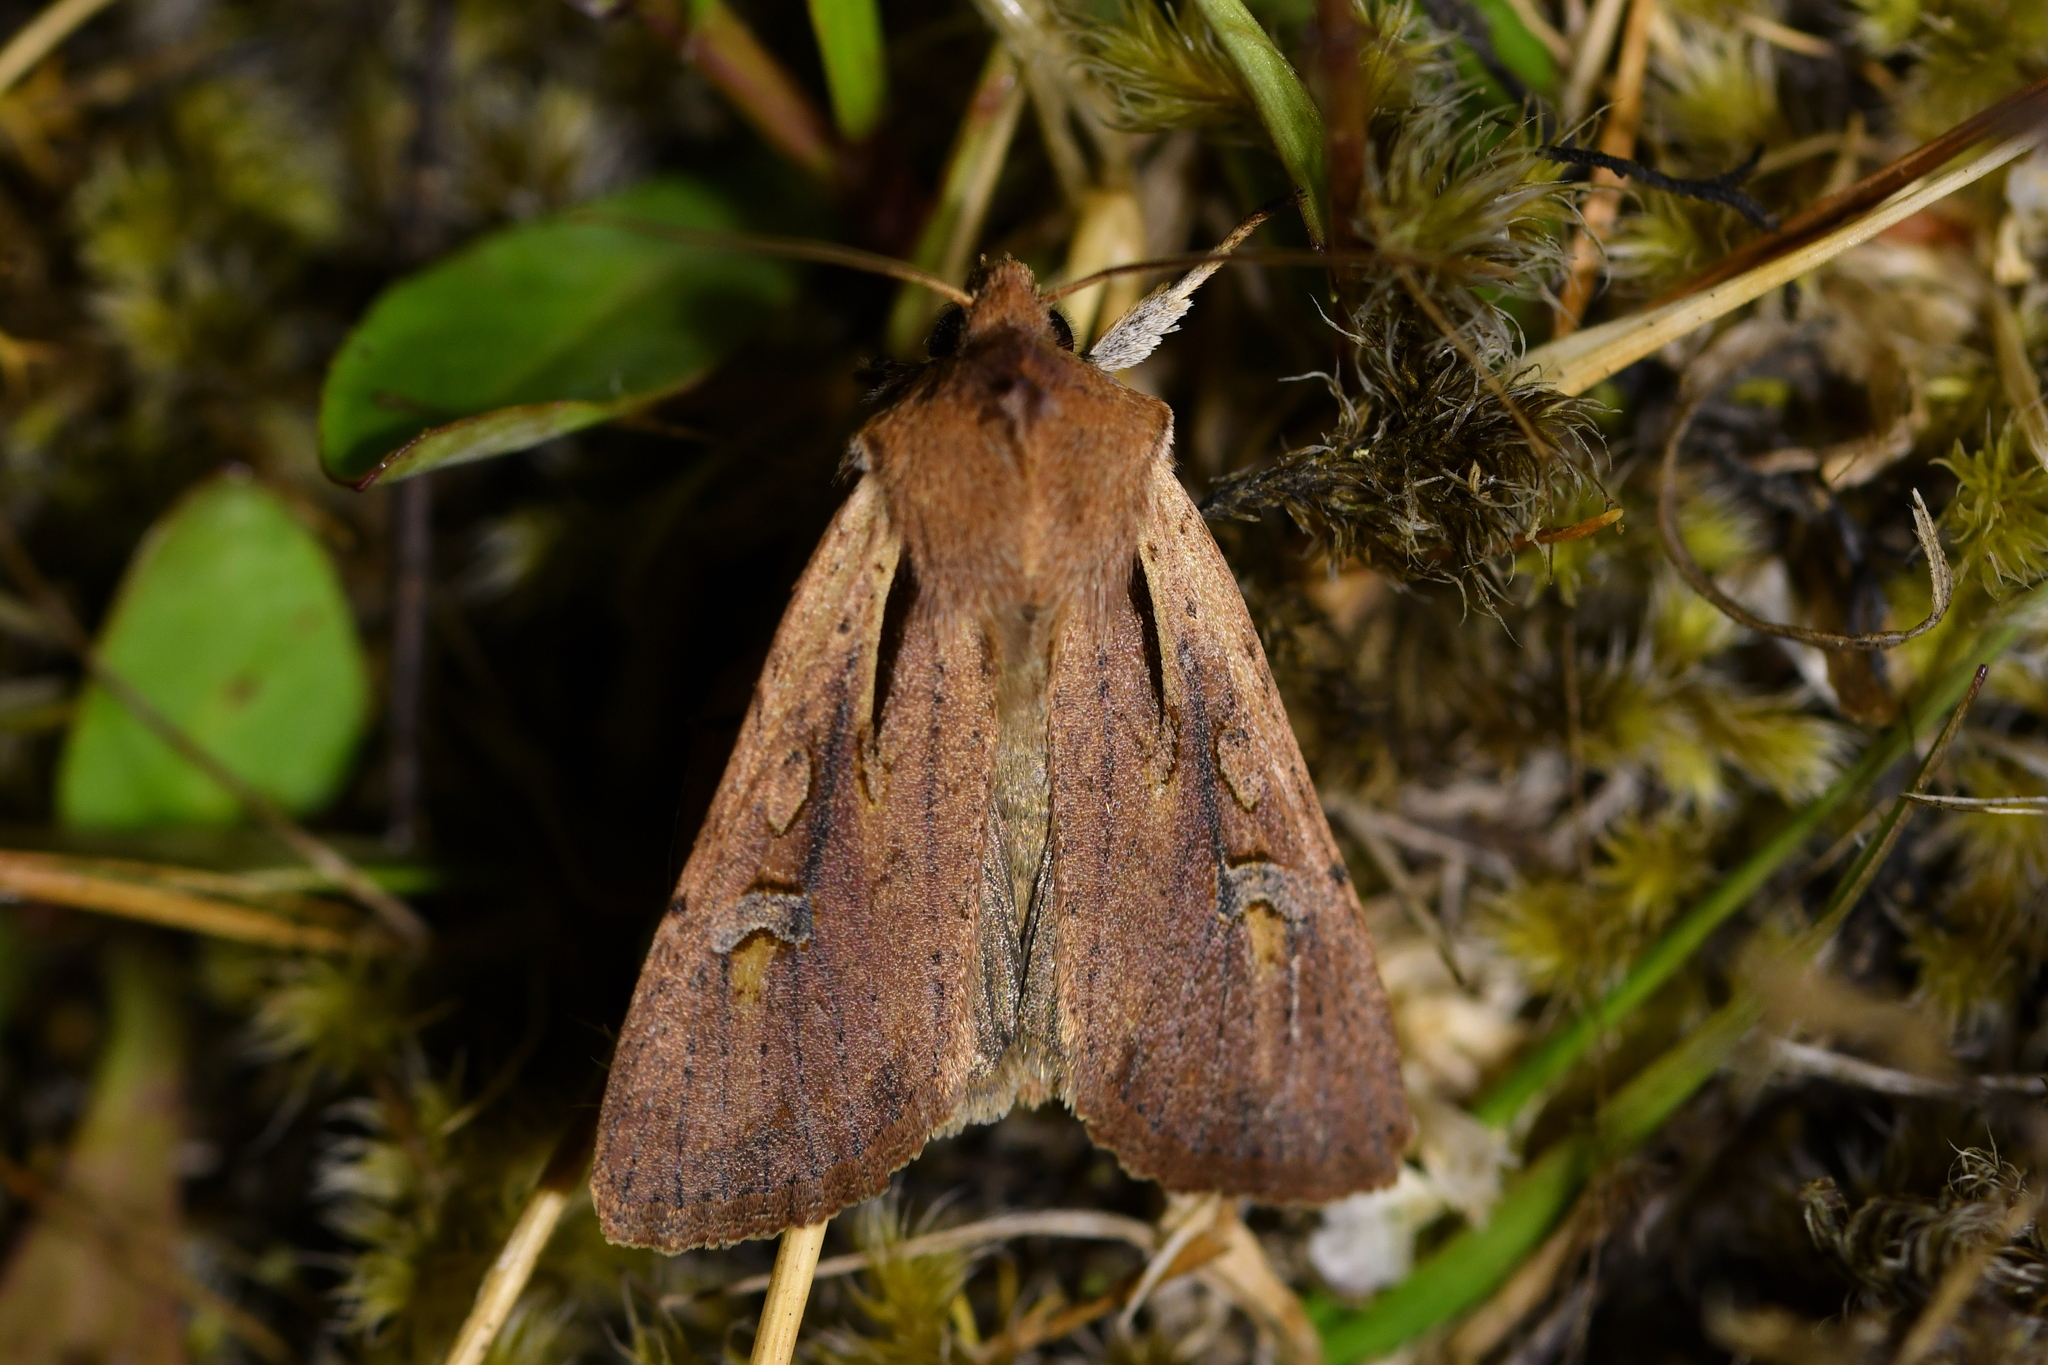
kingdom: Animalia
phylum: Arthropoda
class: Insecta
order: Lepidoptera
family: Noctuidae
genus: Ichneutica
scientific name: Ichneutica atristriga
